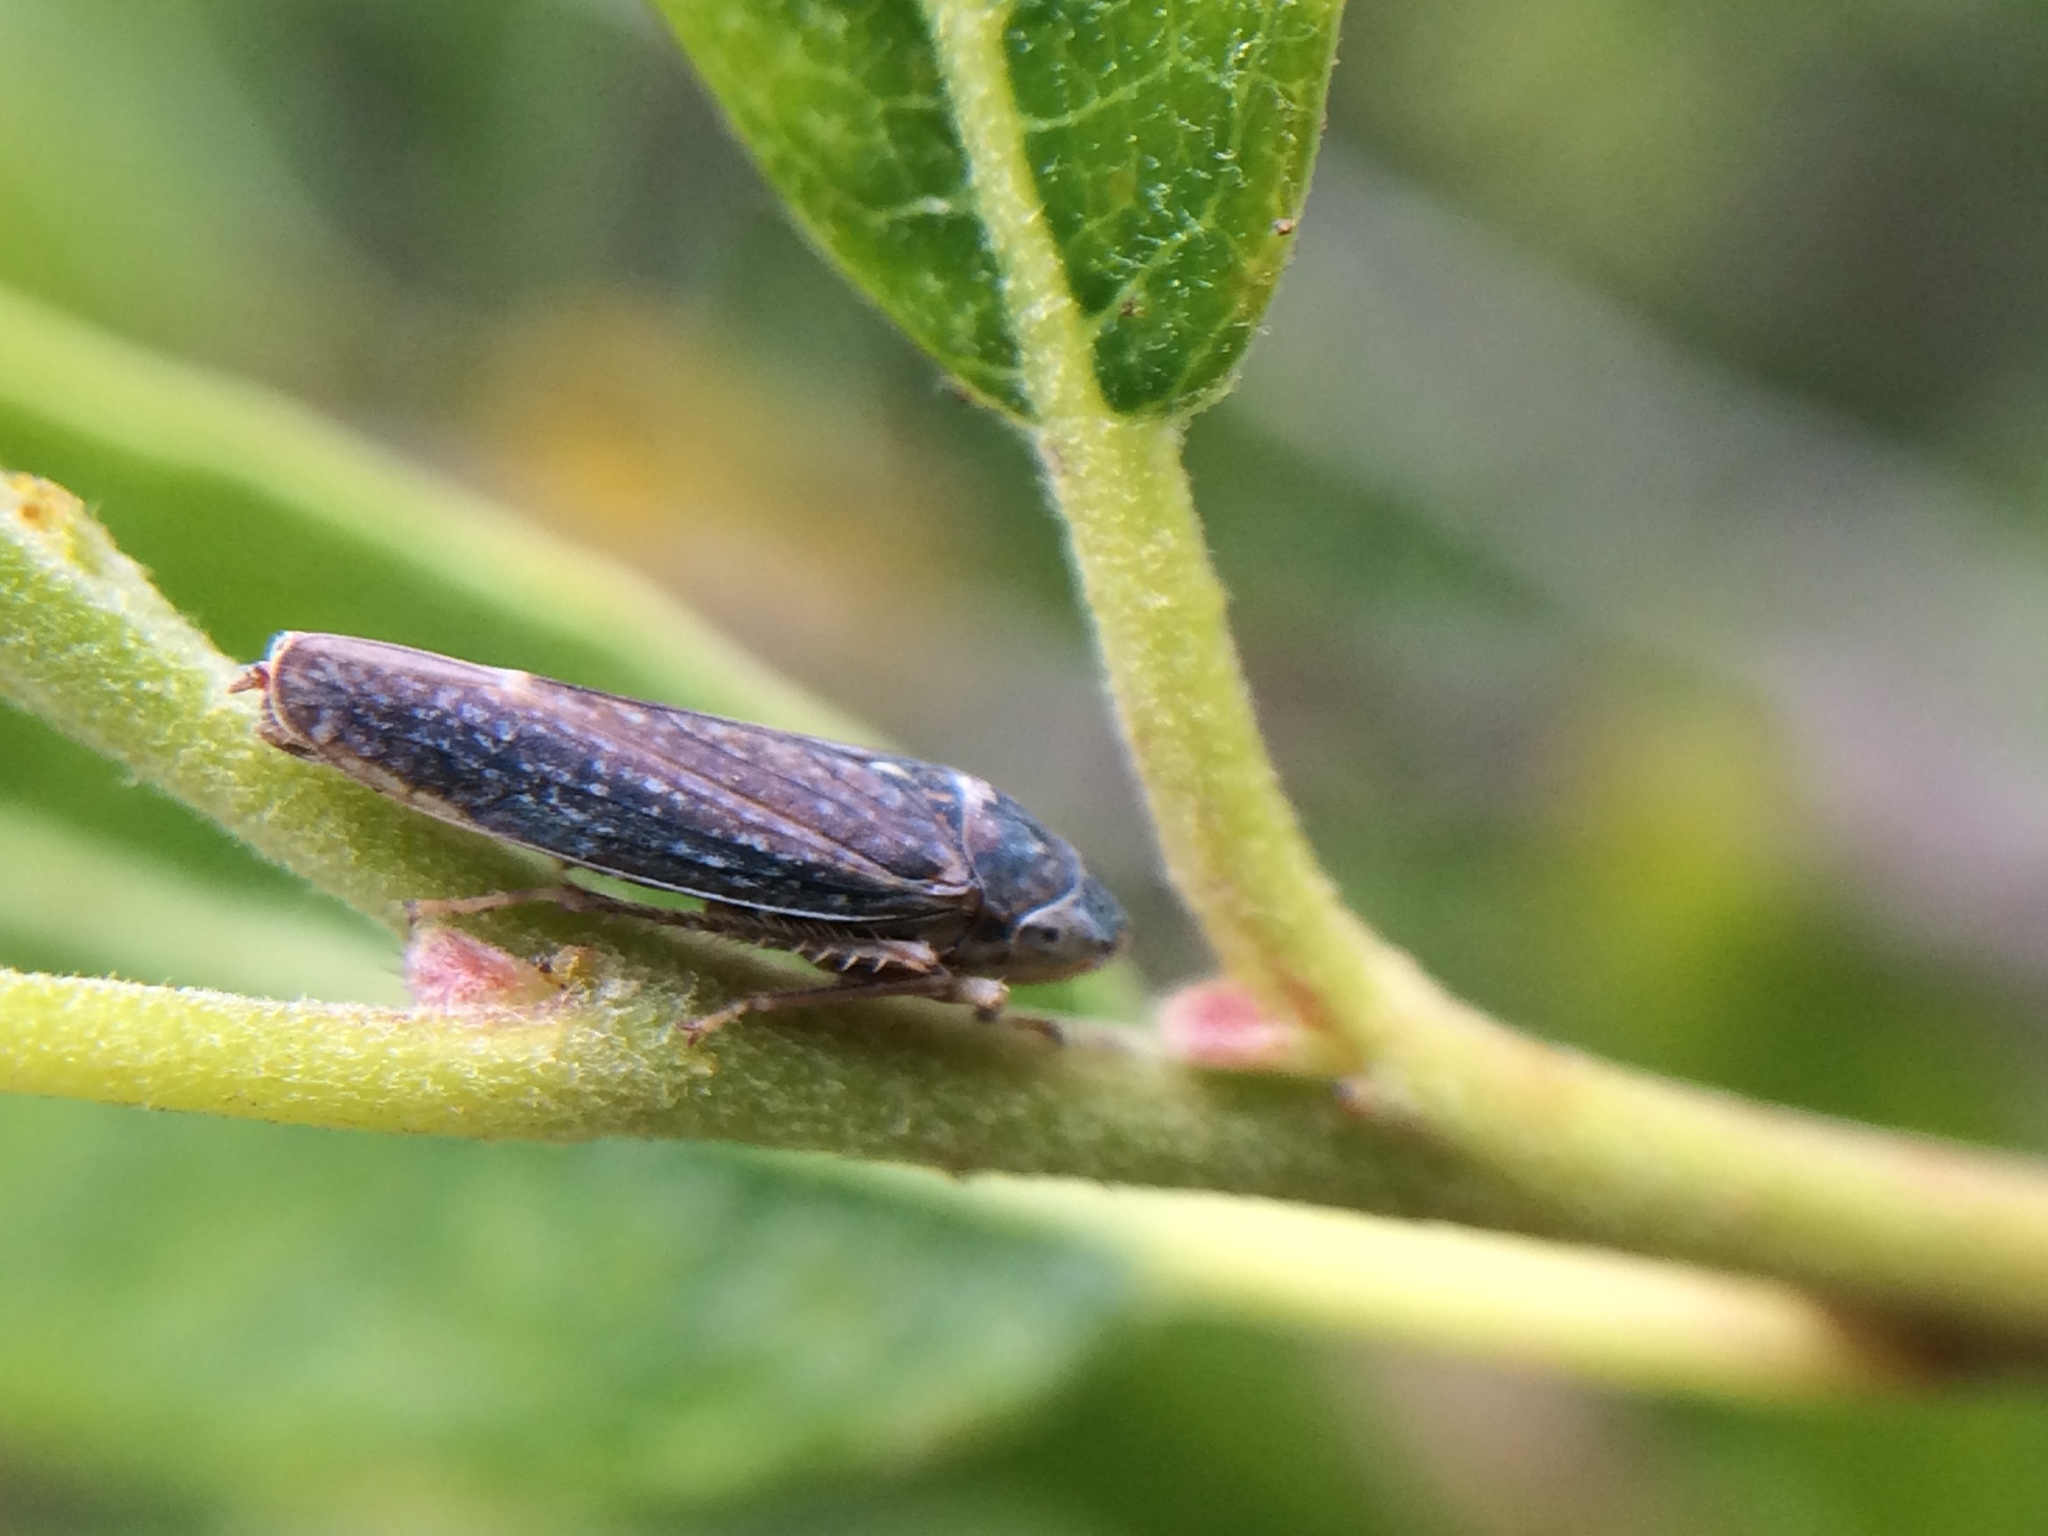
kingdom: Animalia
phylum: Arthropoda
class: Insecta
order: Hemiptera
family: Cicadellidae
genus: Graphocephala
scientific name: Graphocephala confluens
